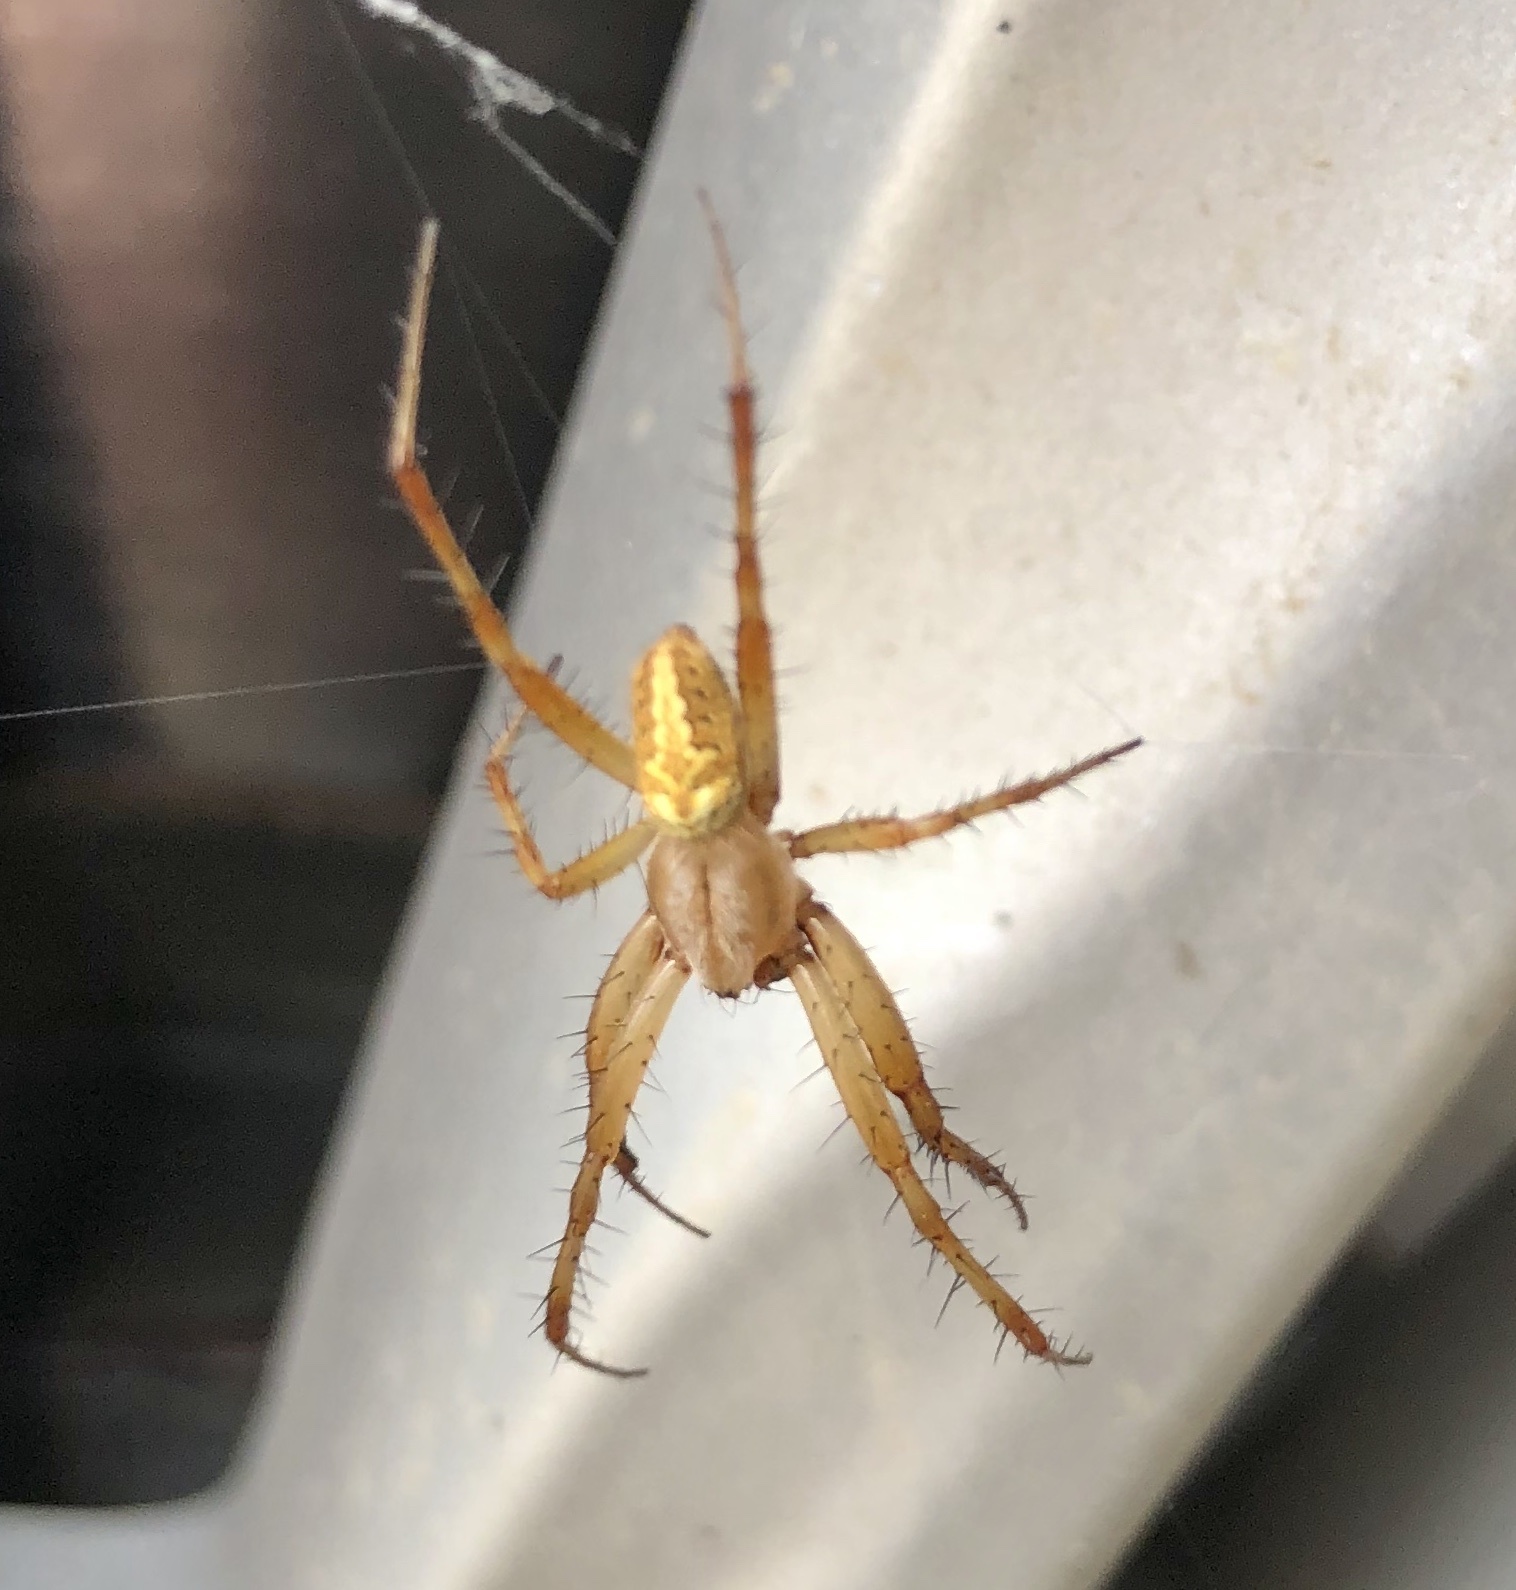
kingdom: Animalia
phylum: Arthropoda
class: Arachnida
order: Araneae
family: Araneidae
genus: Neoscona
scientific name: Neoscona oaxacensis
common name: Orb weavers
